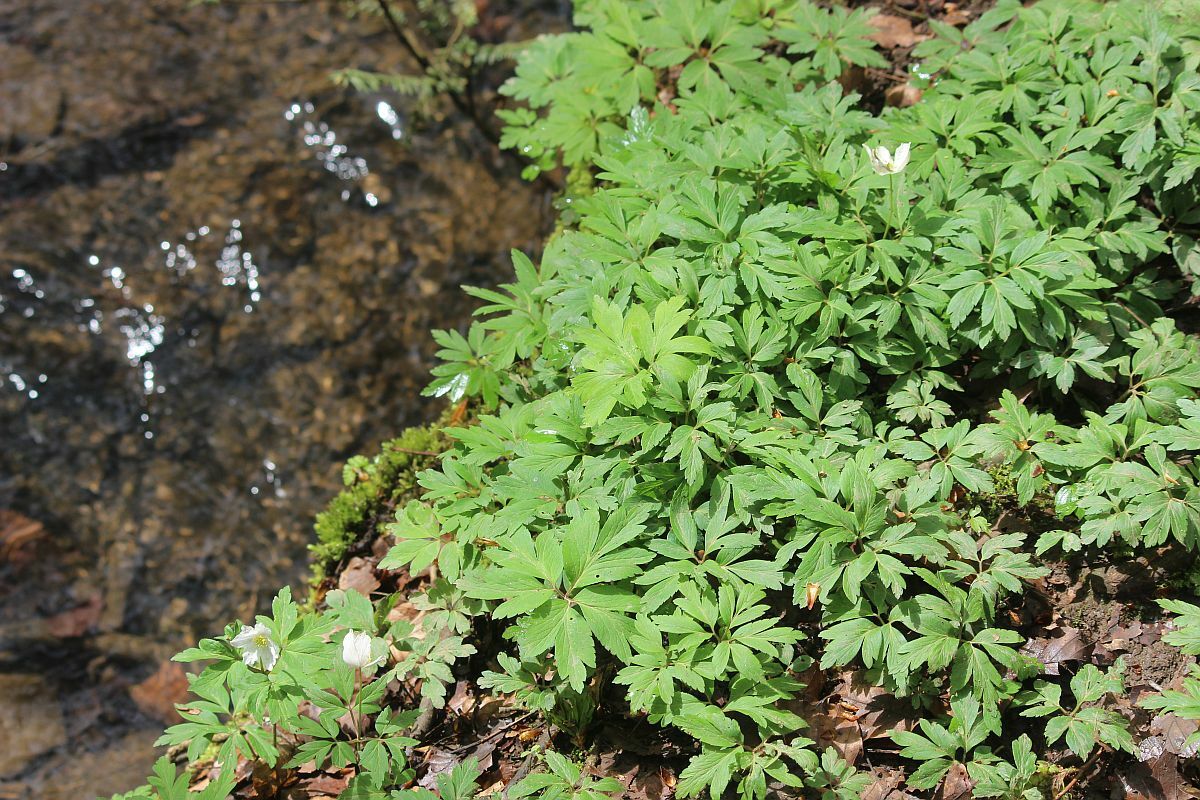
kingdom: Plantae
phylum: Tracheophyta
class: Magnoliopsida
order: Ranunculales
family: Ranunculaceae
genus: Anemone
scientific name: Anemone nemorosa
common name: Wood anemone
